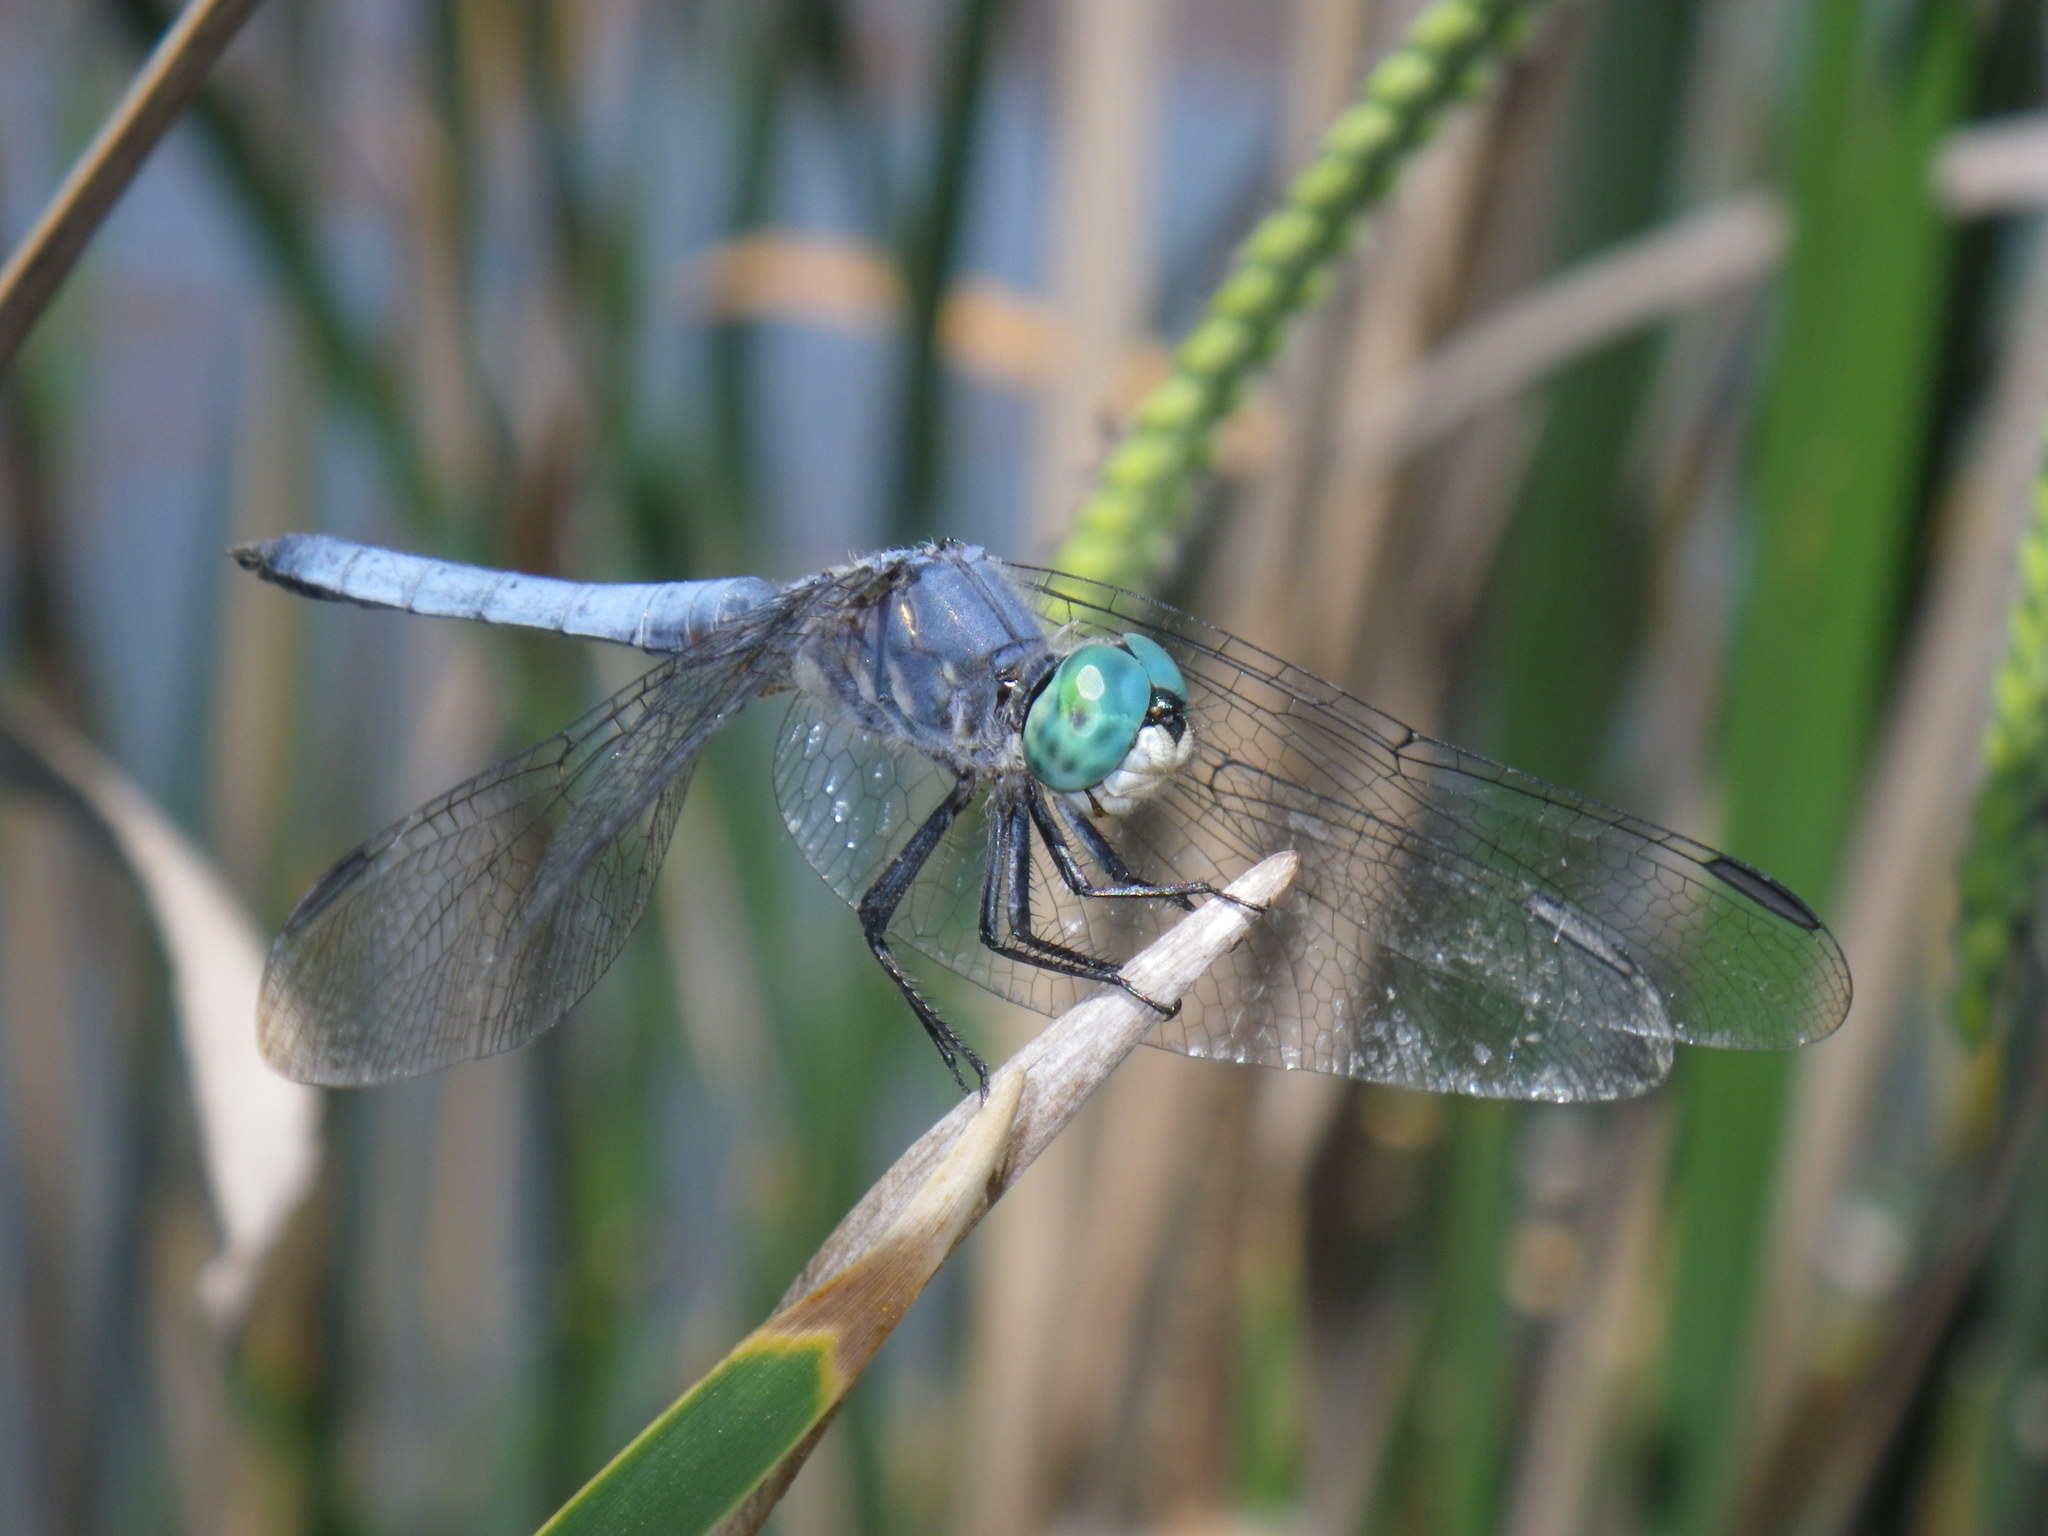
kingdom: Animalia
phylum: Arthropoda
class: Insecta
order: Odonata
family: Libellulidae
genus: Pachydiplax
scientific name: Pachydiplax longipennis
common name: Blue dasher
